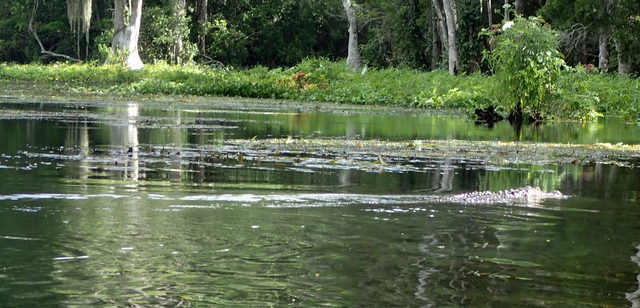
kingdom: Animalia
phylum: Chordata
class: Crocodylia
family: Alligatoridae
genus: Alligator
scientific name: Alligator mississippiensis
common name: American alligator
